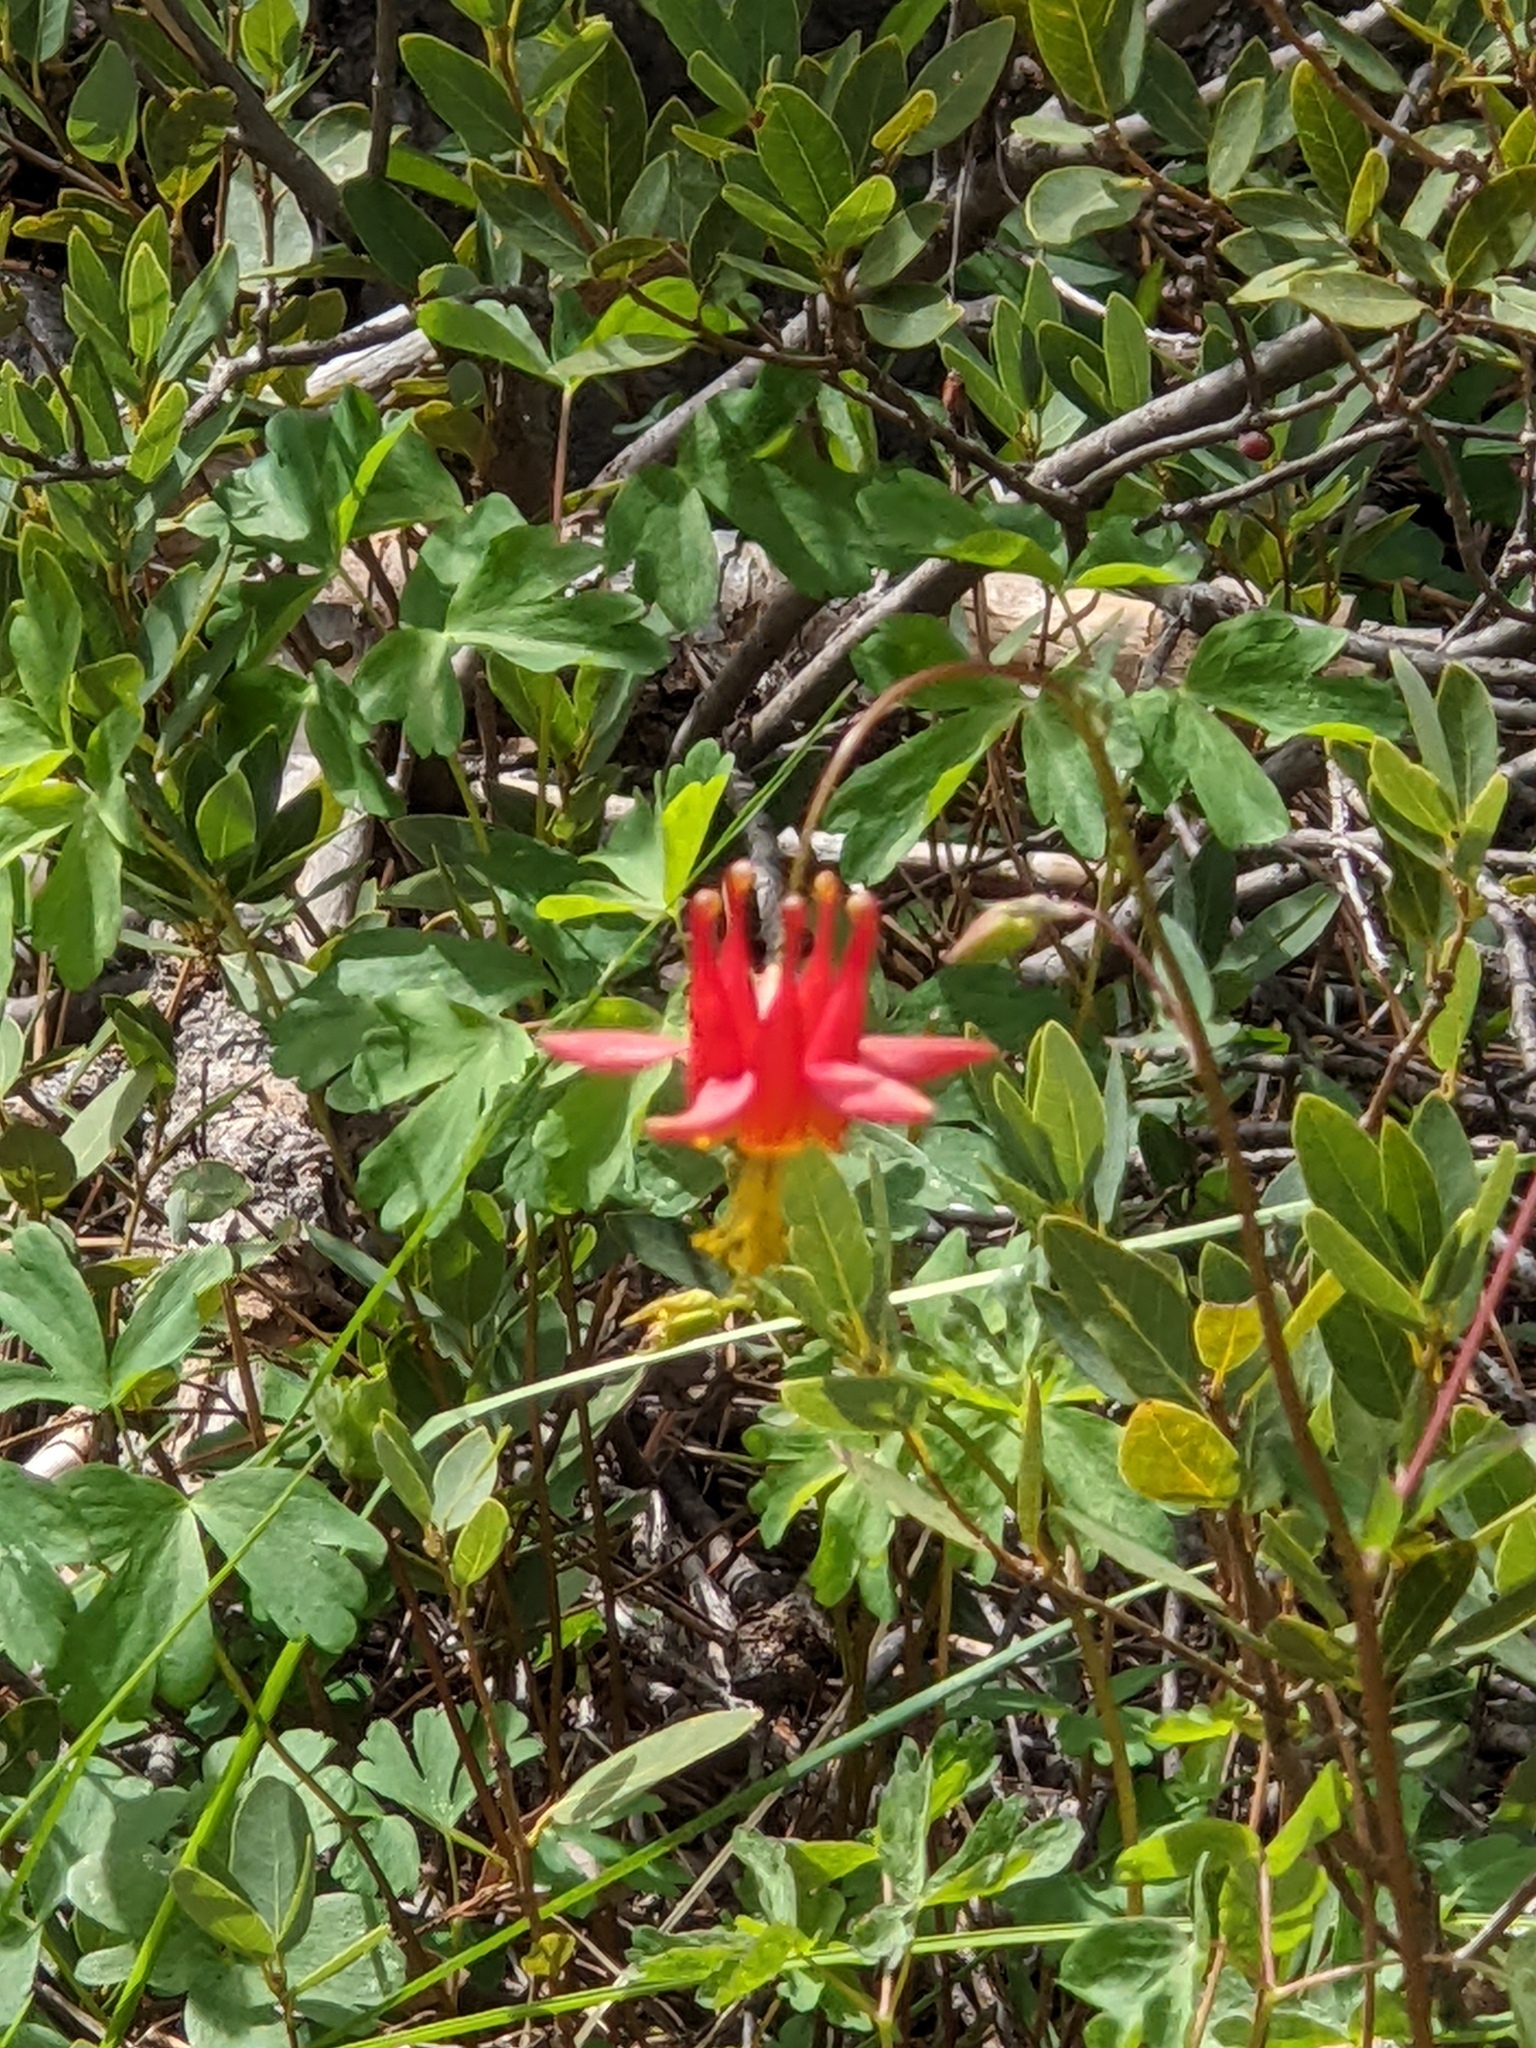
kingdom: Plantae
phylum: Tracheophyta
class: Magnoliopsida
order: Ranunculales
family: Ranunculaceae
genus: Aquilegia
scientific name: Aquilegia formosa
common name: Sitka columbine
